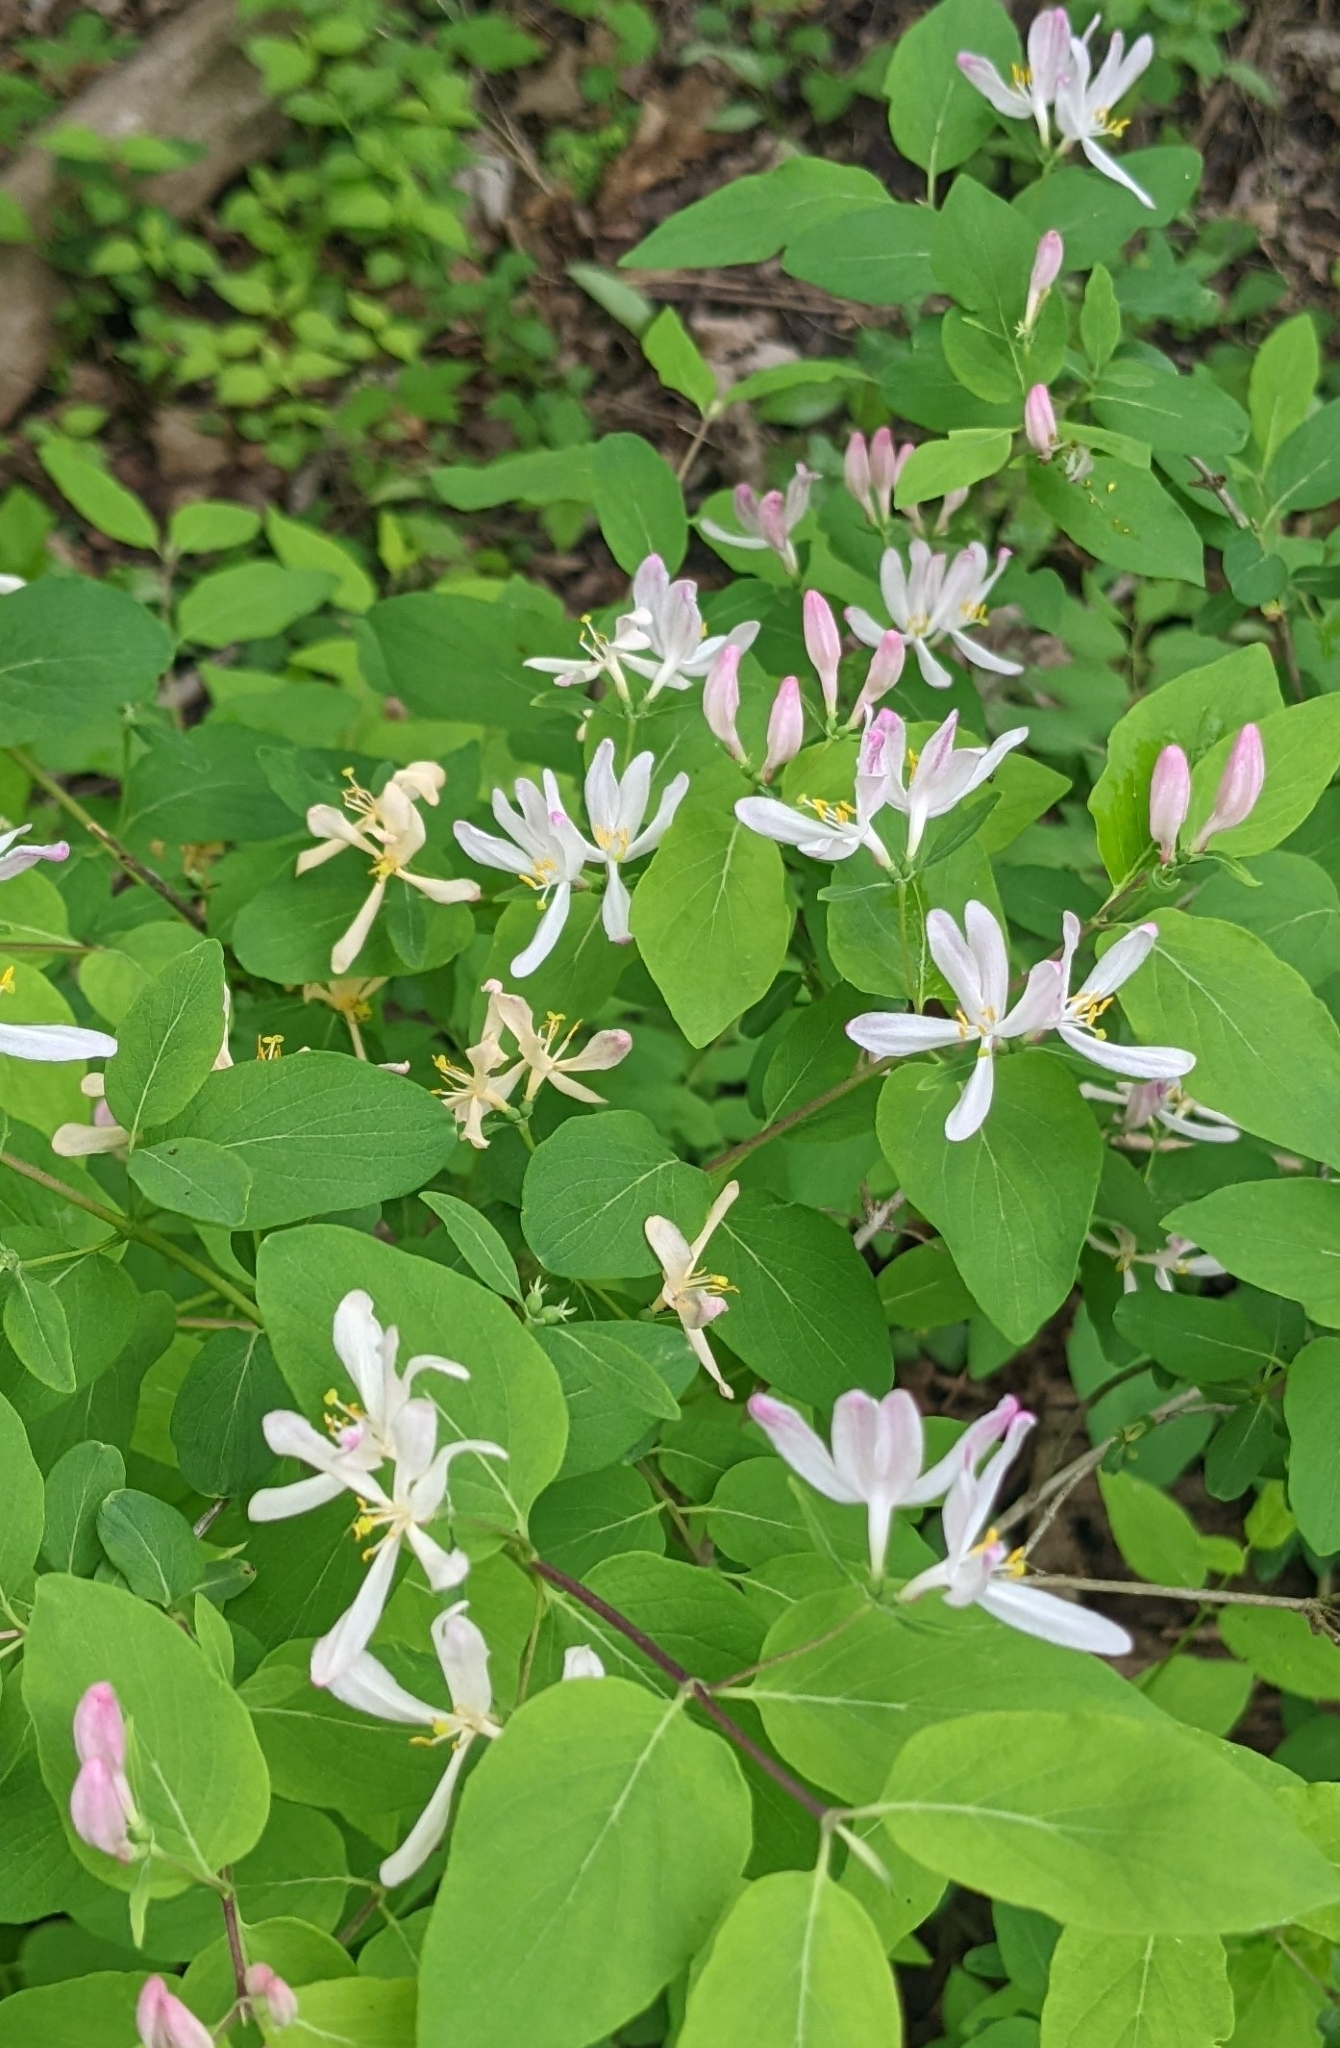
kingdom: Plantae
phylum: Tracheophyta
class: Magnoliopsida
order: Dipsacales
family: Caprifoliaceae
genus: Lonicera
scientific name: Lonicera bella
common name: Bell's honeysuckle
